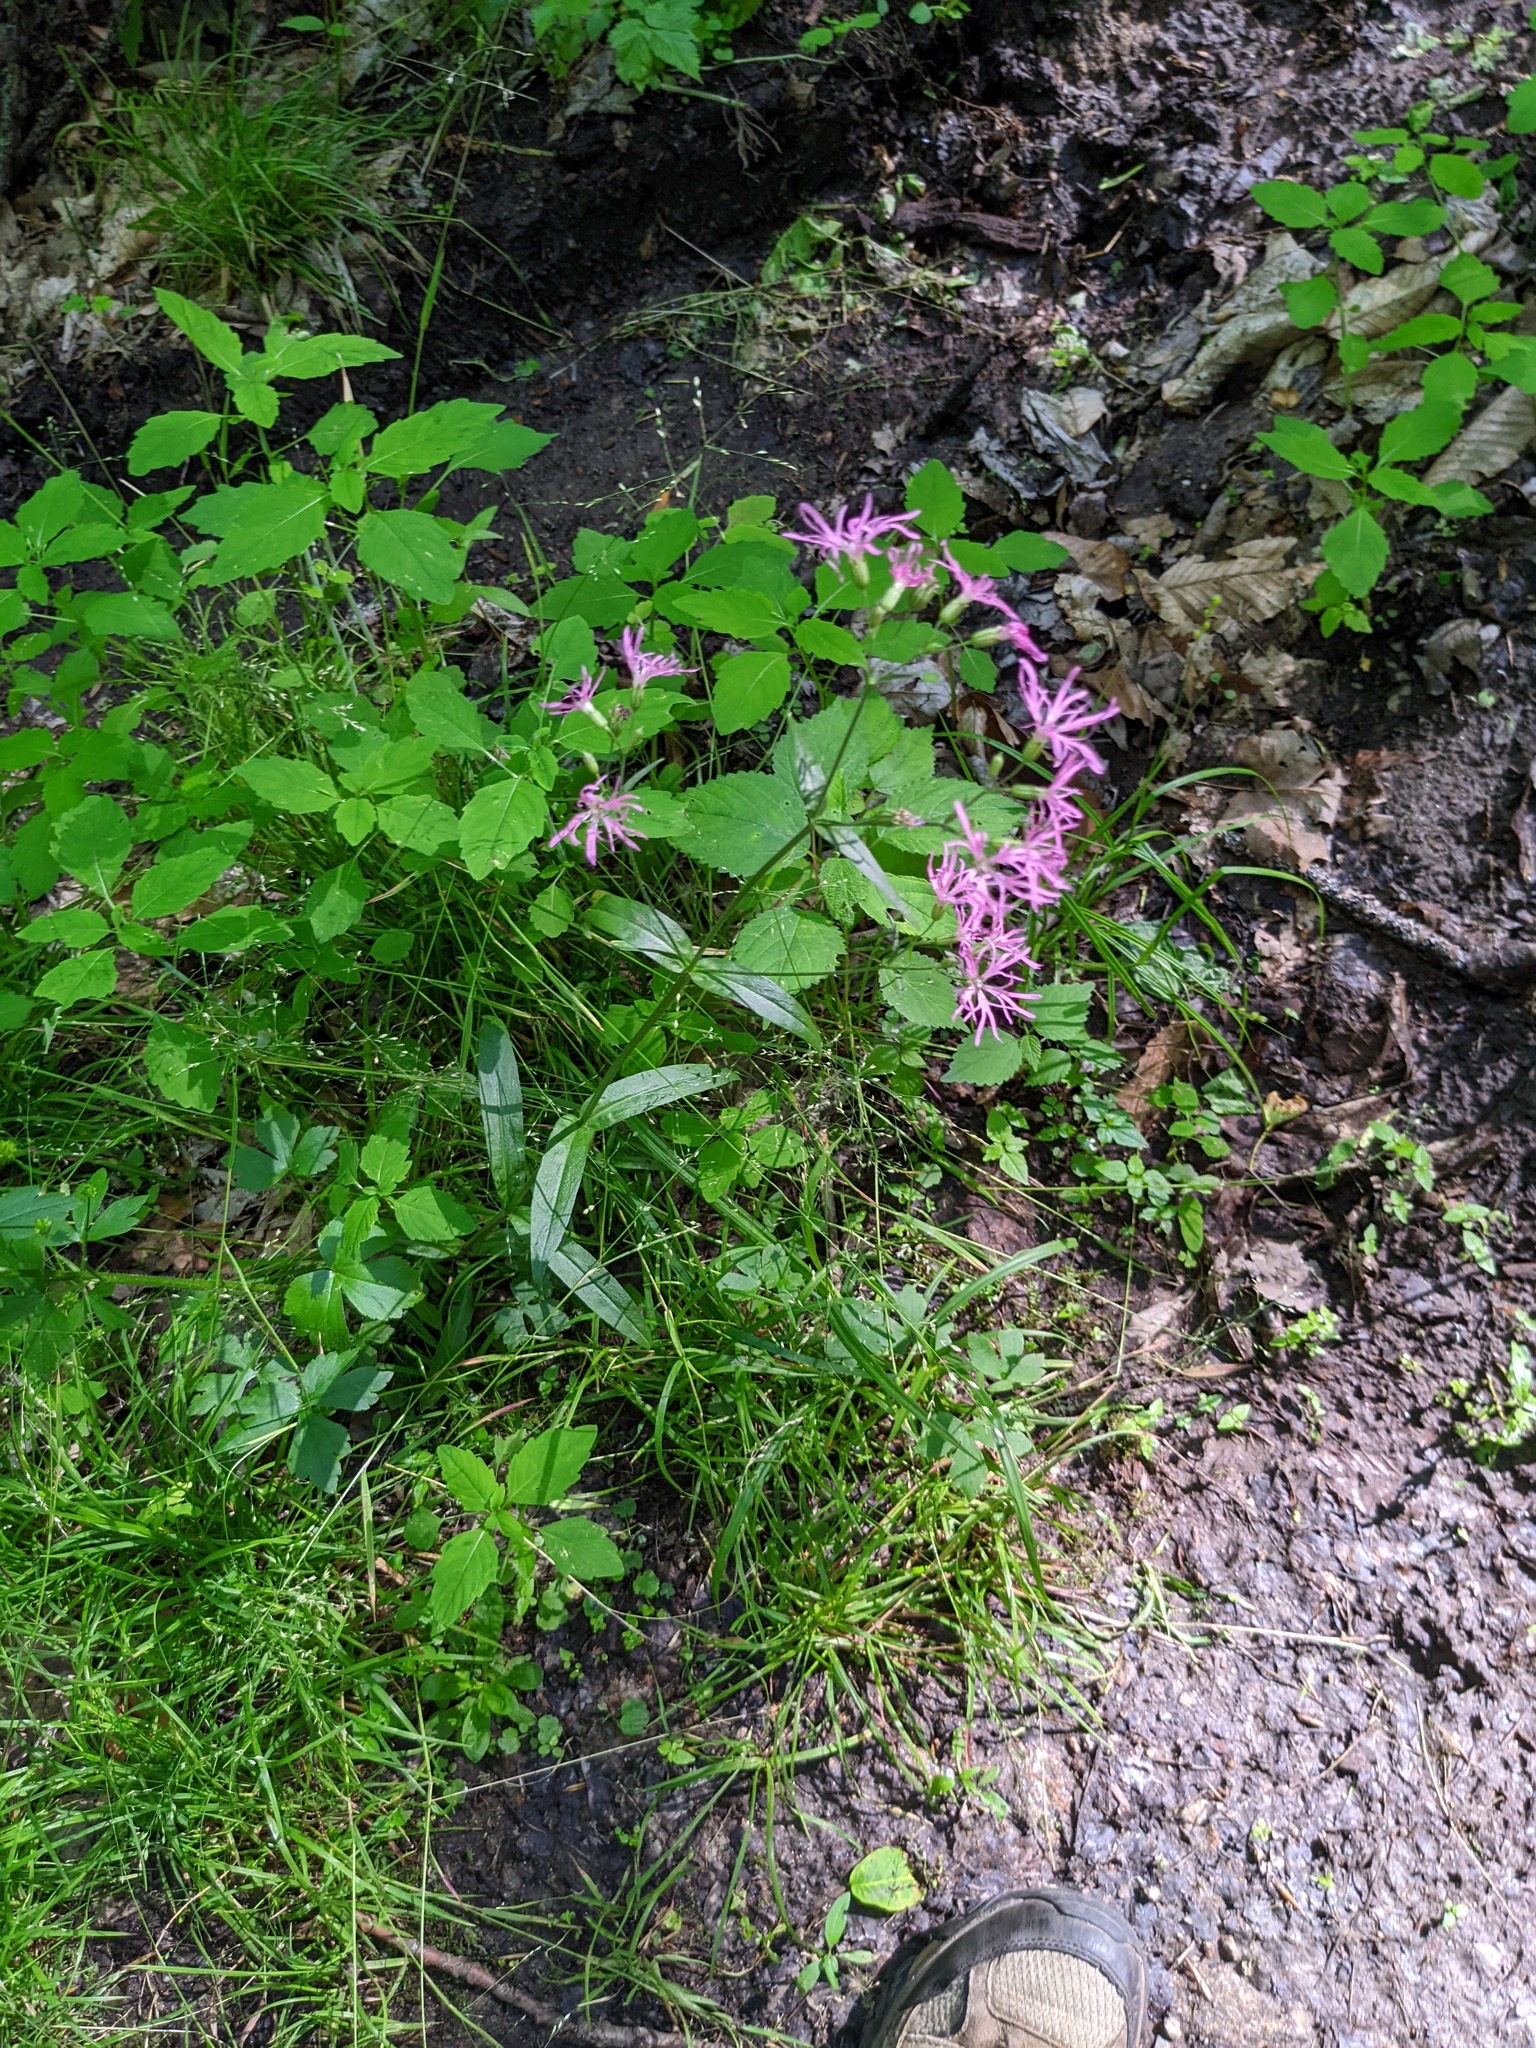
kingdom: Plantae
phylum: Tracheophyta
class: Magnoliopsida
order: Caryophyllales
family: Caryophyllaceae
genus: Silene
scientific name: Silene flos-cuculi
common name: Ragged-robin
